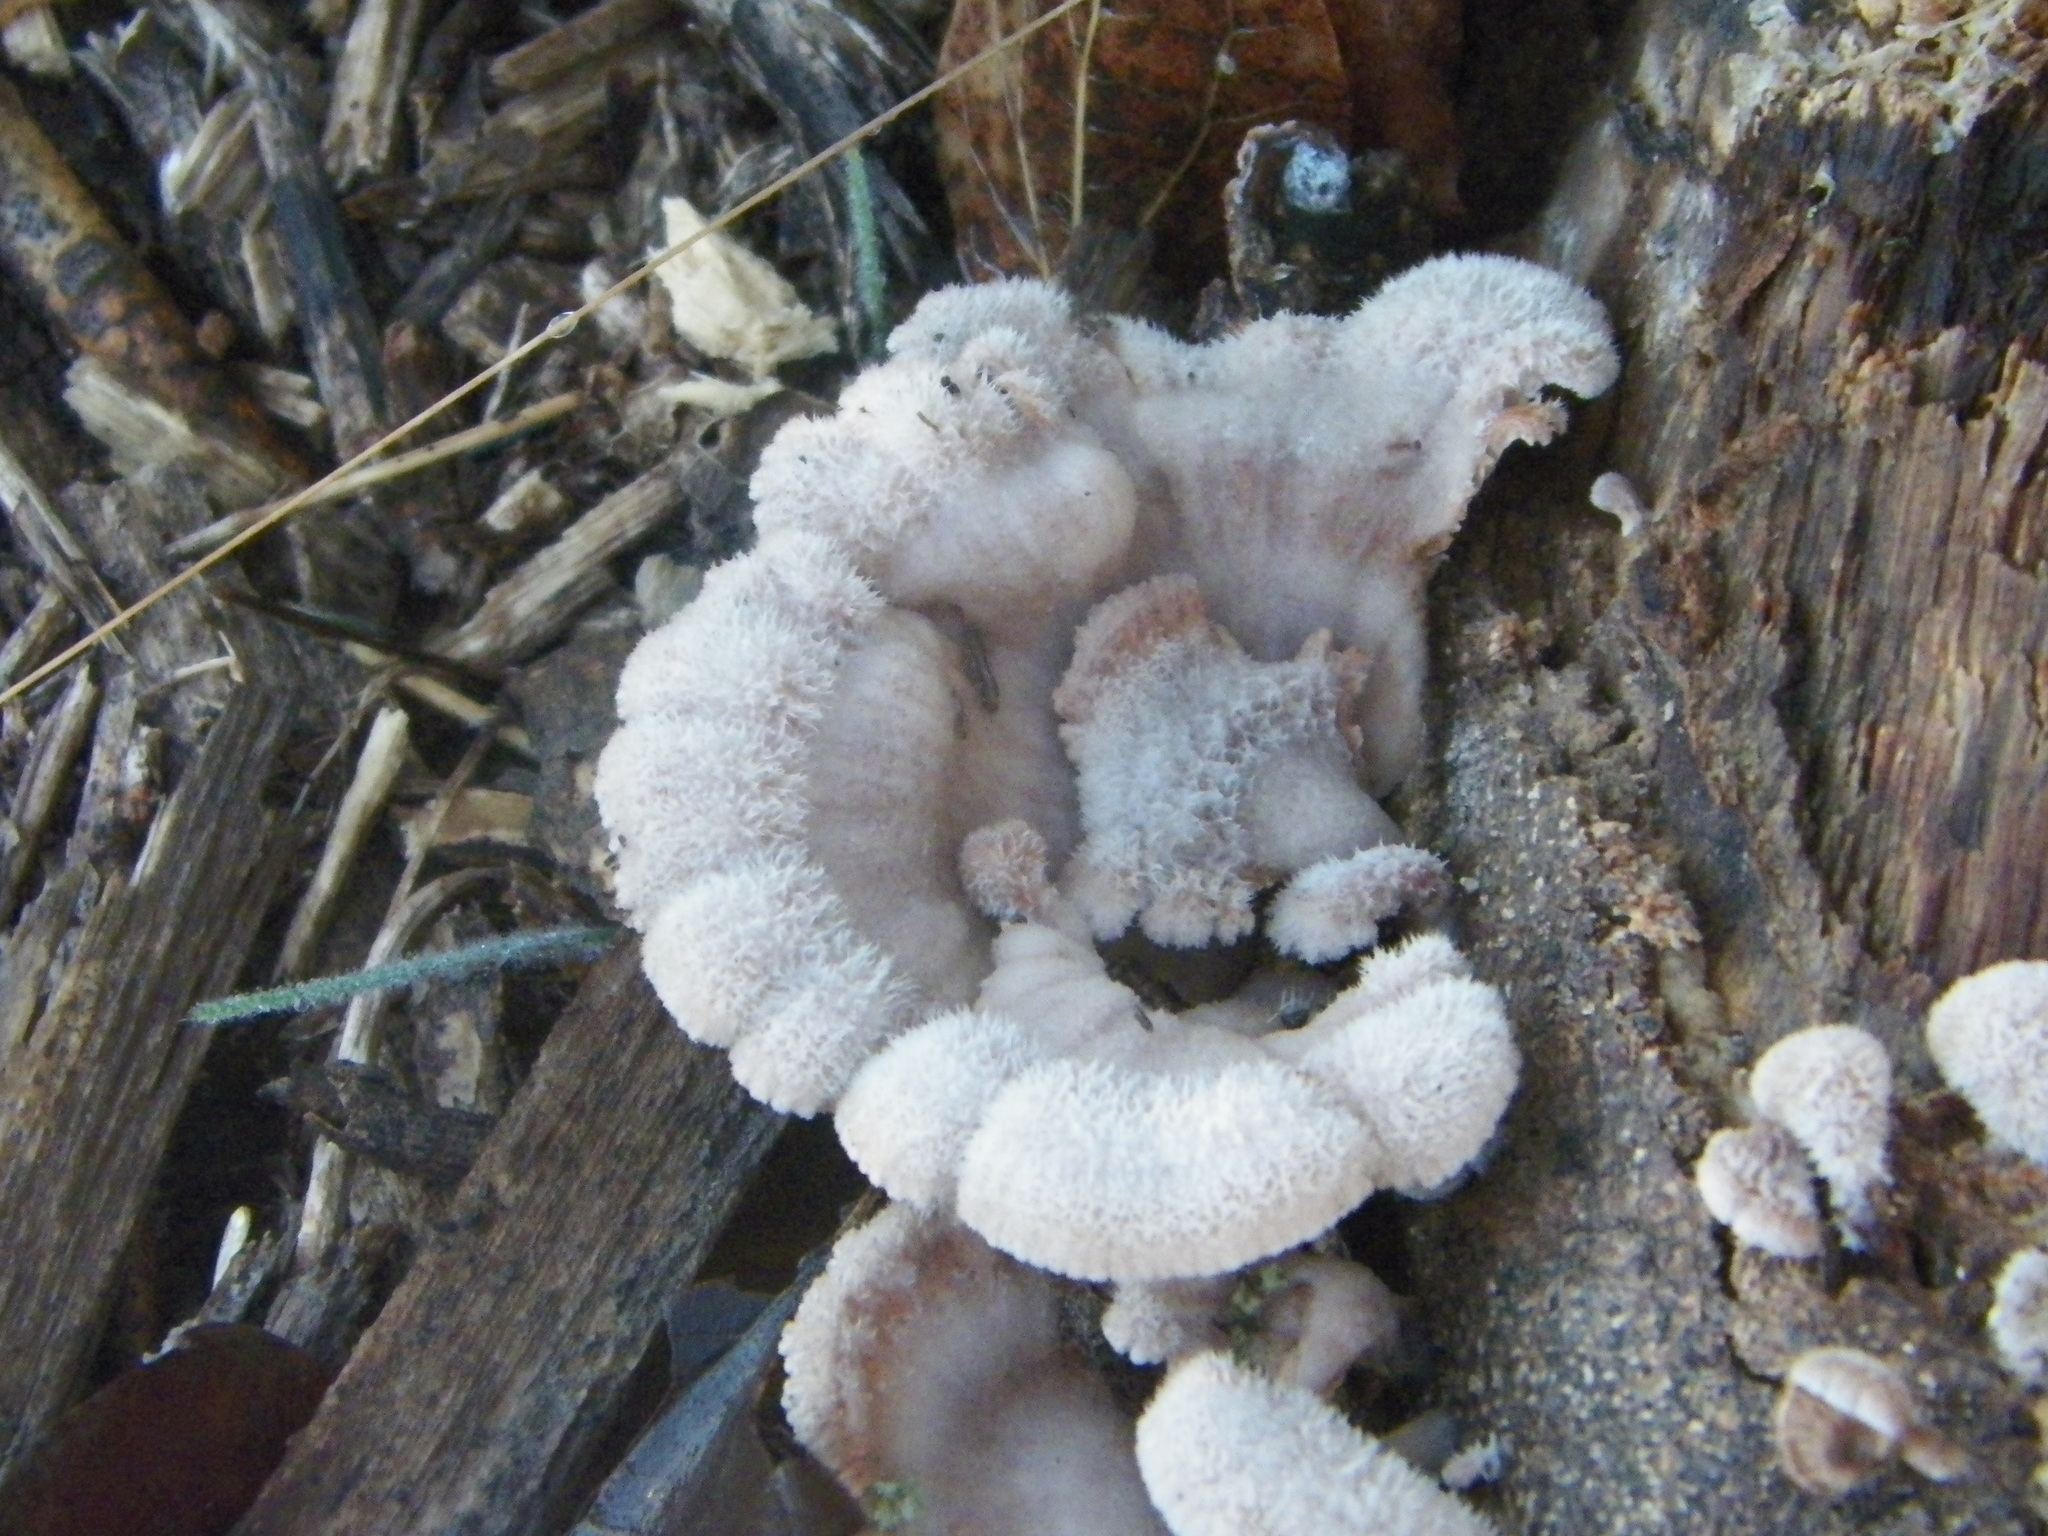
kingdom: Fungi
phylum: Basidiomycota
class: Agaricomycetes
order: Agaricales
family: Schizophyllaceae
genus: Schizophyllum
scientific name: Schizophyllum commune
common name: Common porecrust
